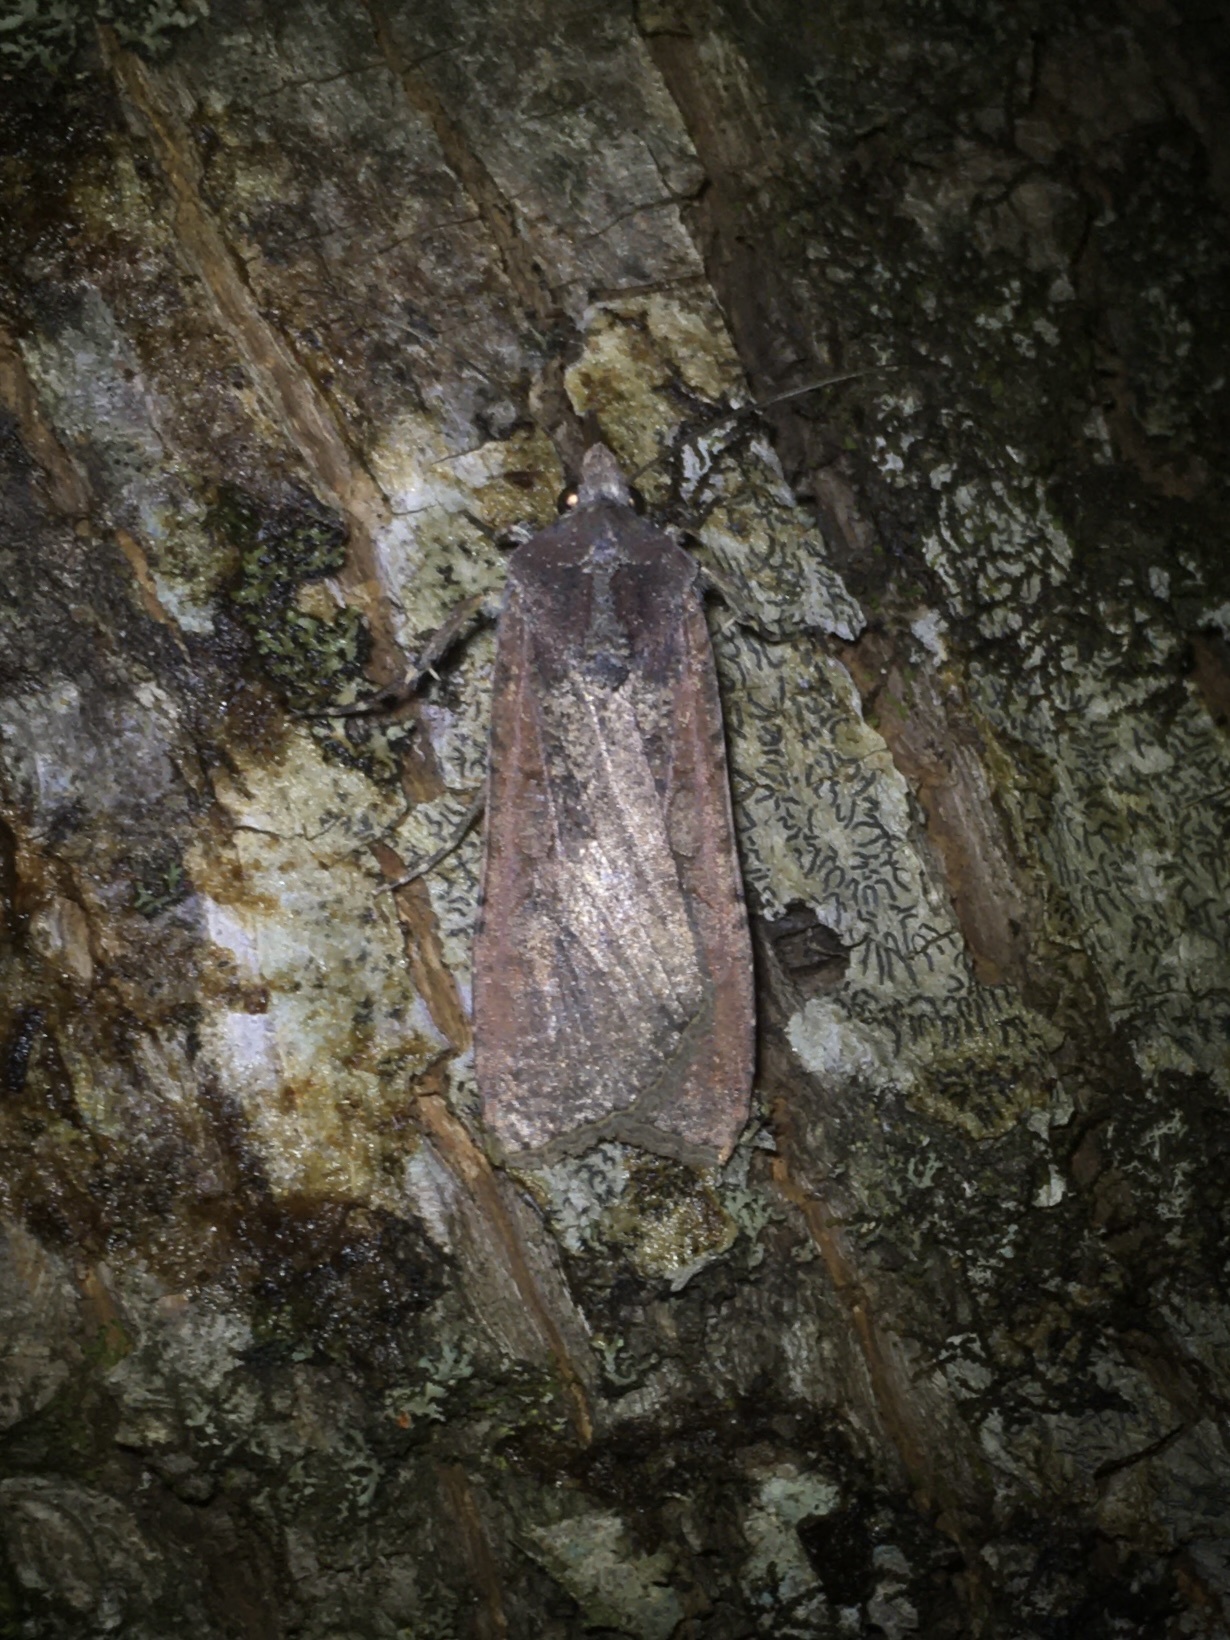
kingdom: Animalia
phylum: Arthropoda
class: Insecta
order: Lepidoptera
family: Noctuidae
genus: Peridroma
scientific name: Peridroma saucia
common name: Pearly underwing
